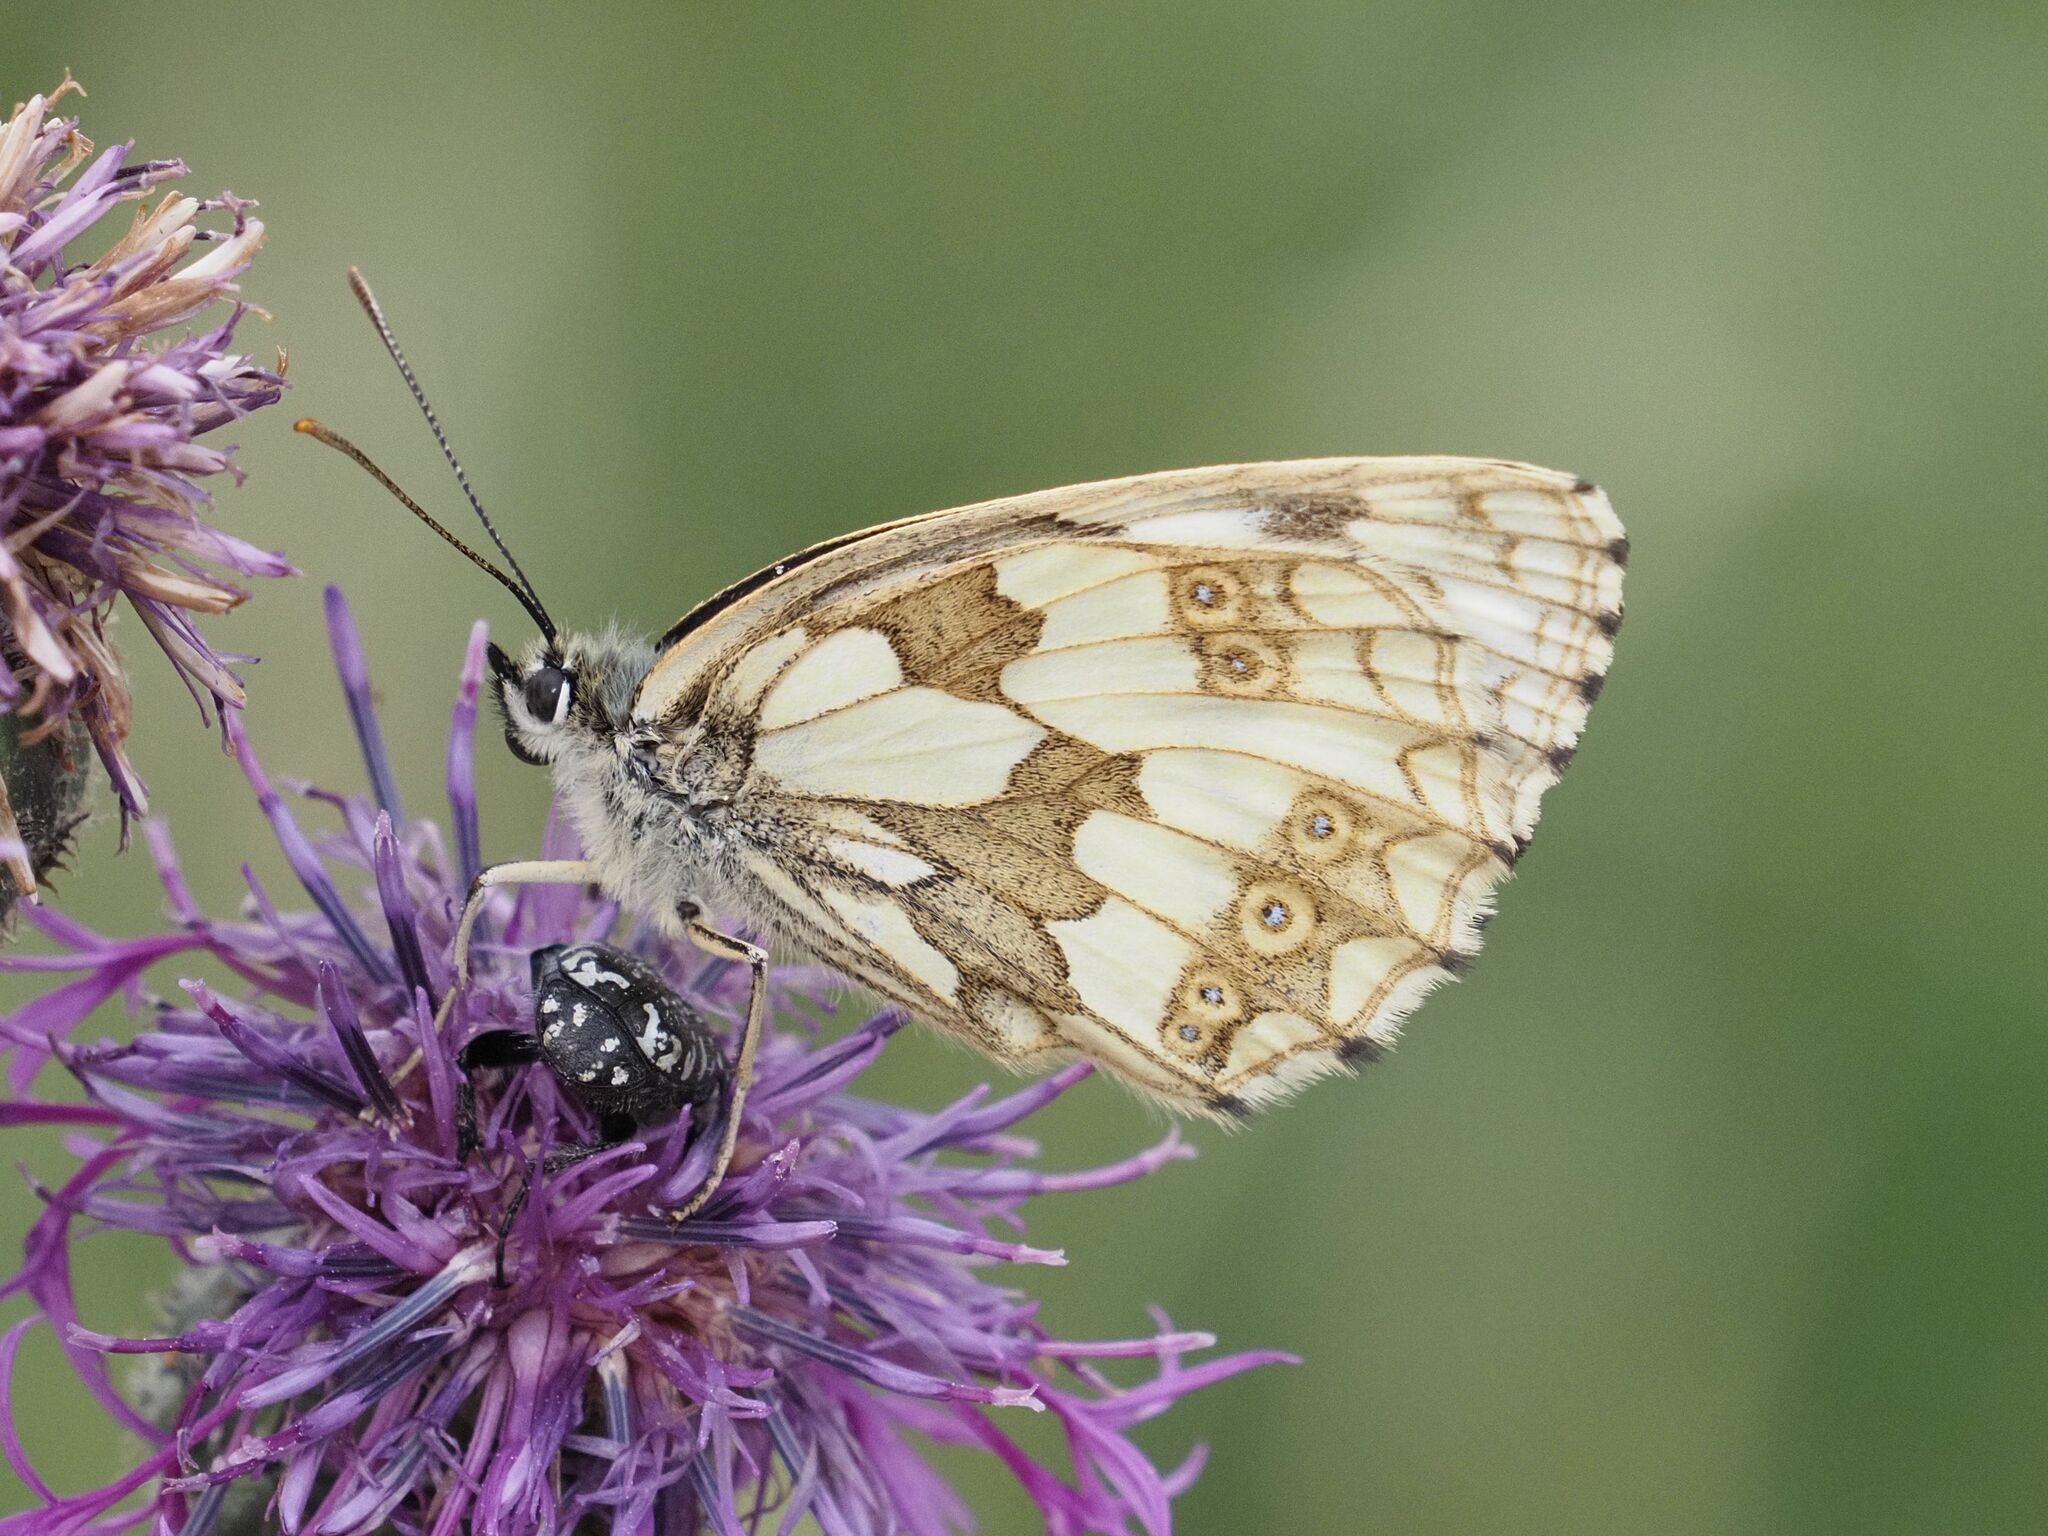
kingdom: Animalia
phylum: Arthropoda
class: Insecta
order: Lepidoptera
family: Nymphalidae
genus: Melanargia
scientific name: Melanargia galathea
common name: Marbled white
